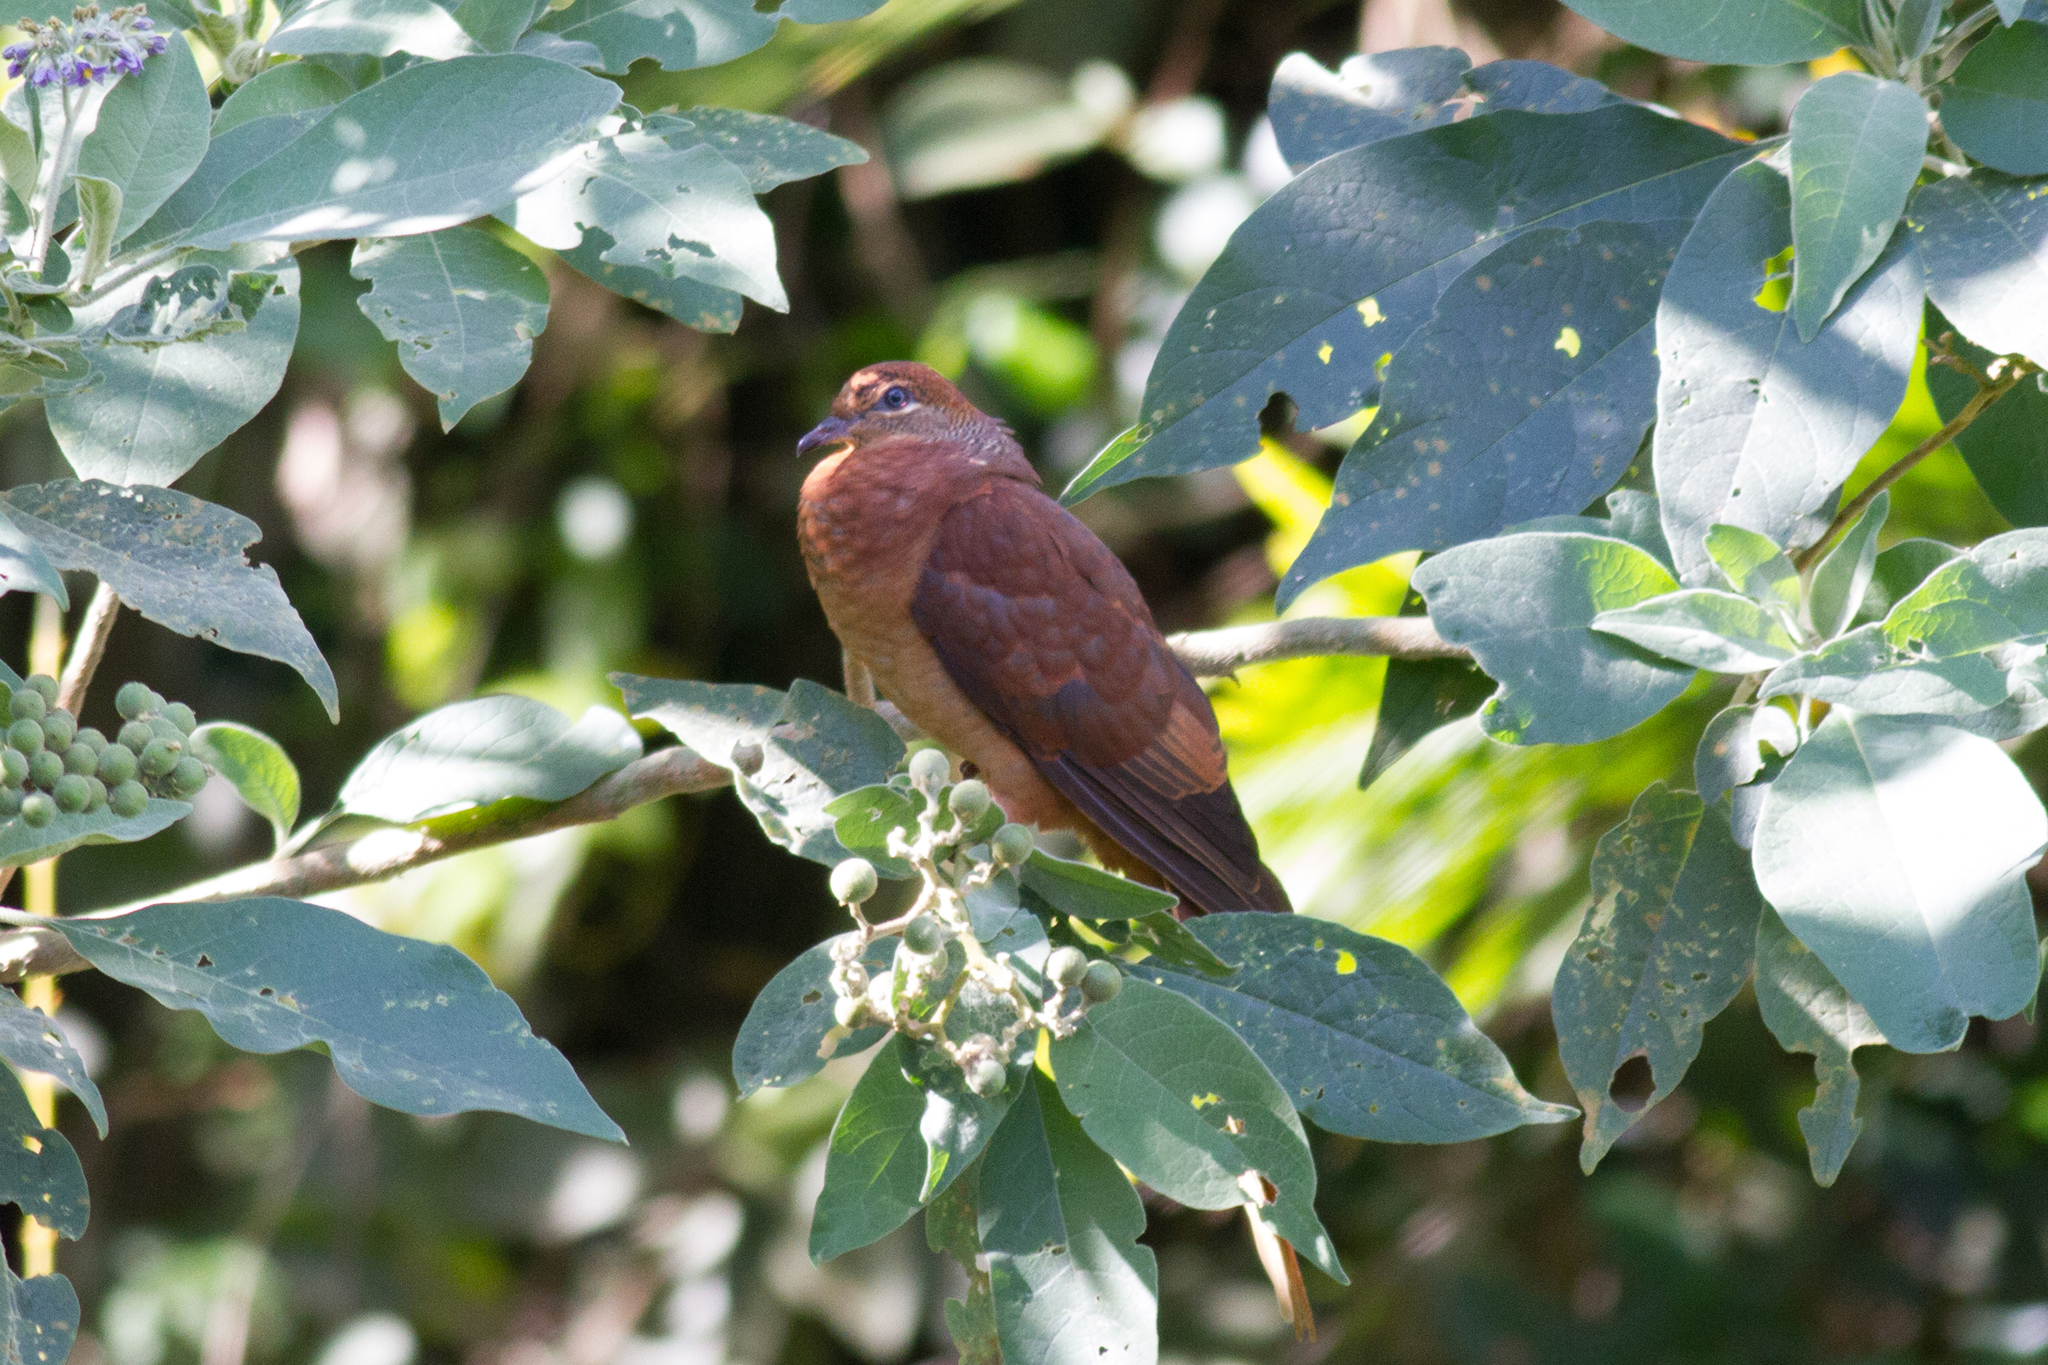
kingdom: Animalia
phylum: Chordata
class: Aves
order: Columbiformes
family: Columbidae
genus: Macropygia
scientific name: Macropygia phasianella
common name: Brown cuckoo-dove
